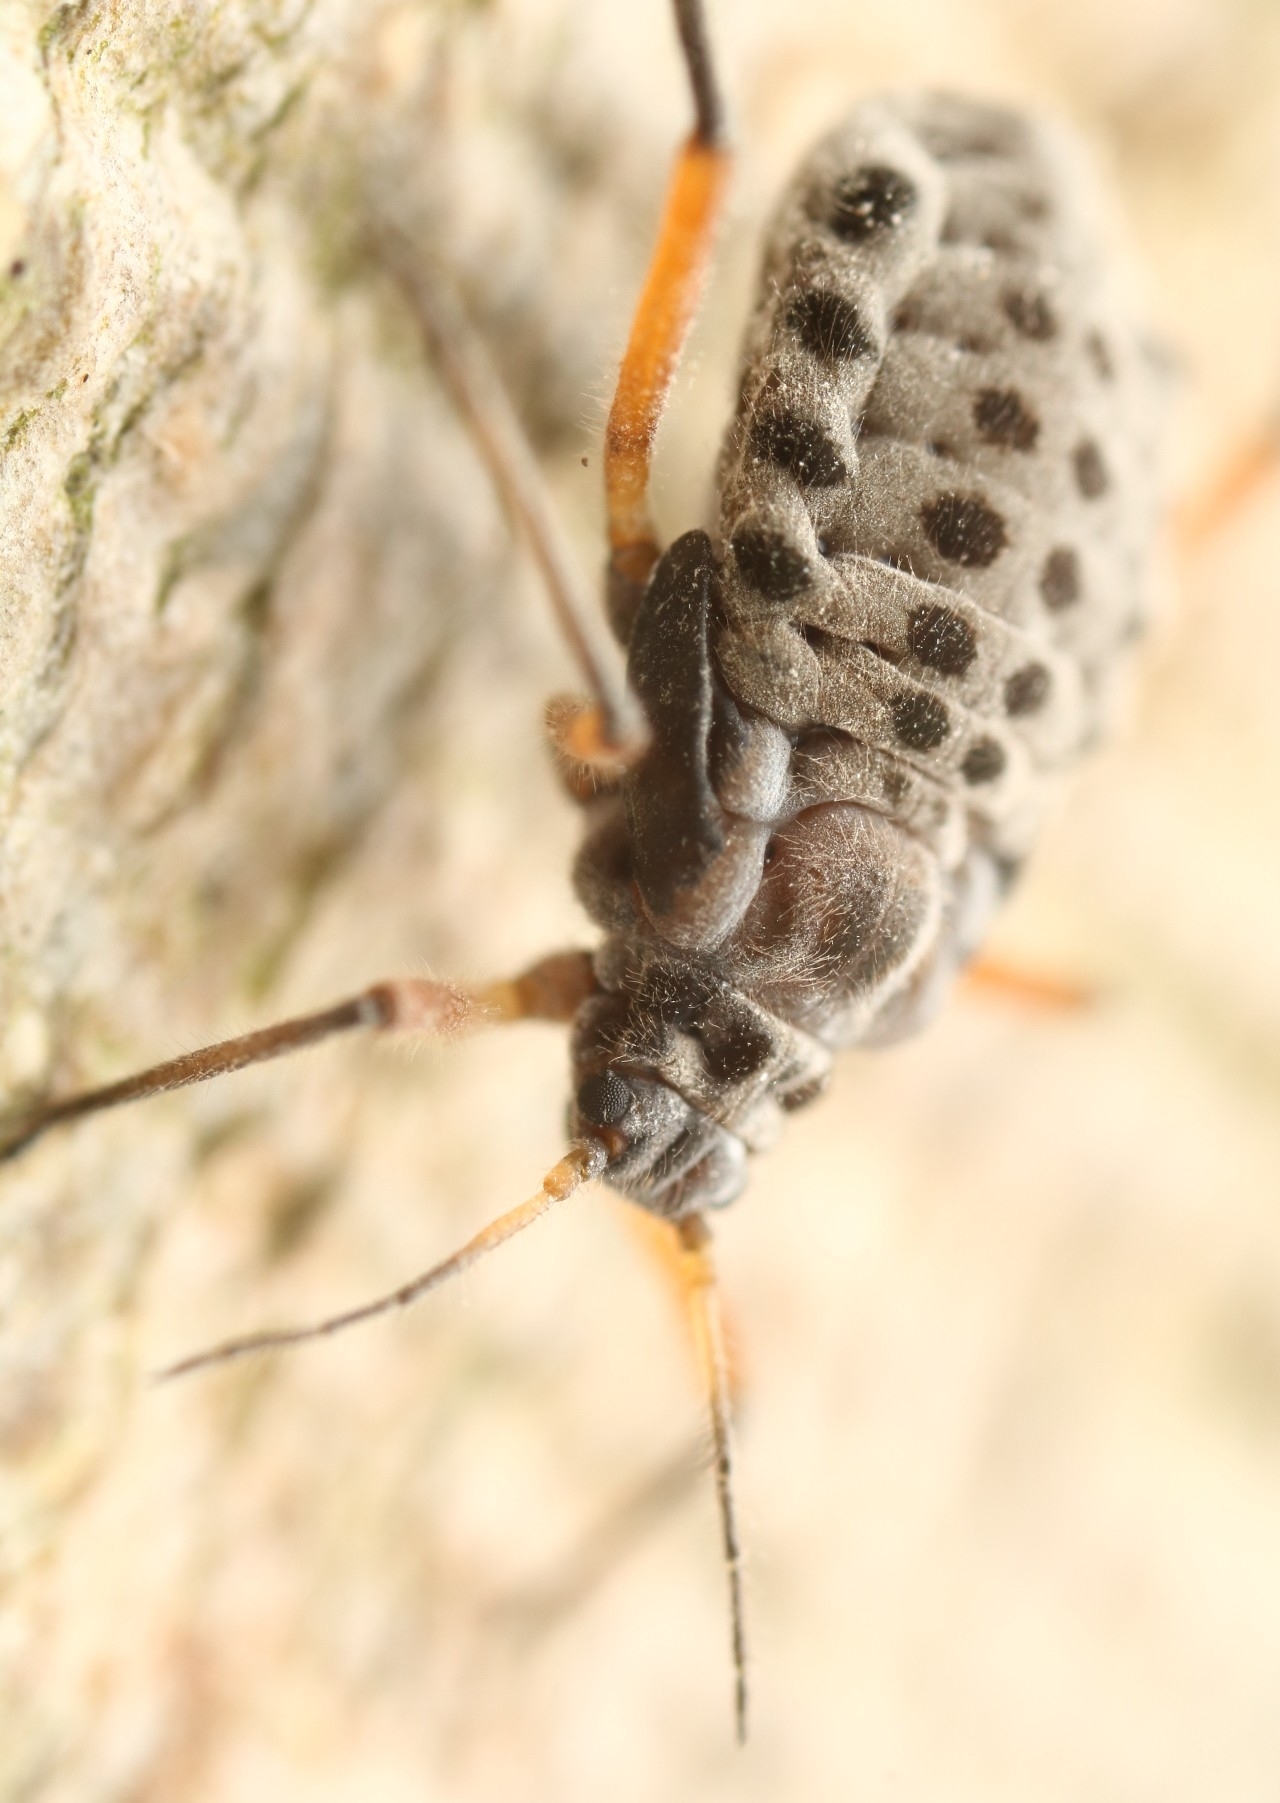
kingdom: Animalia
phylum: Arthropoda
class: Insecta
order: Hemiptera
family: Aphididae
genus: Longistigma
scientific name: Longistigma caryae
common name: Giant bark aphid
